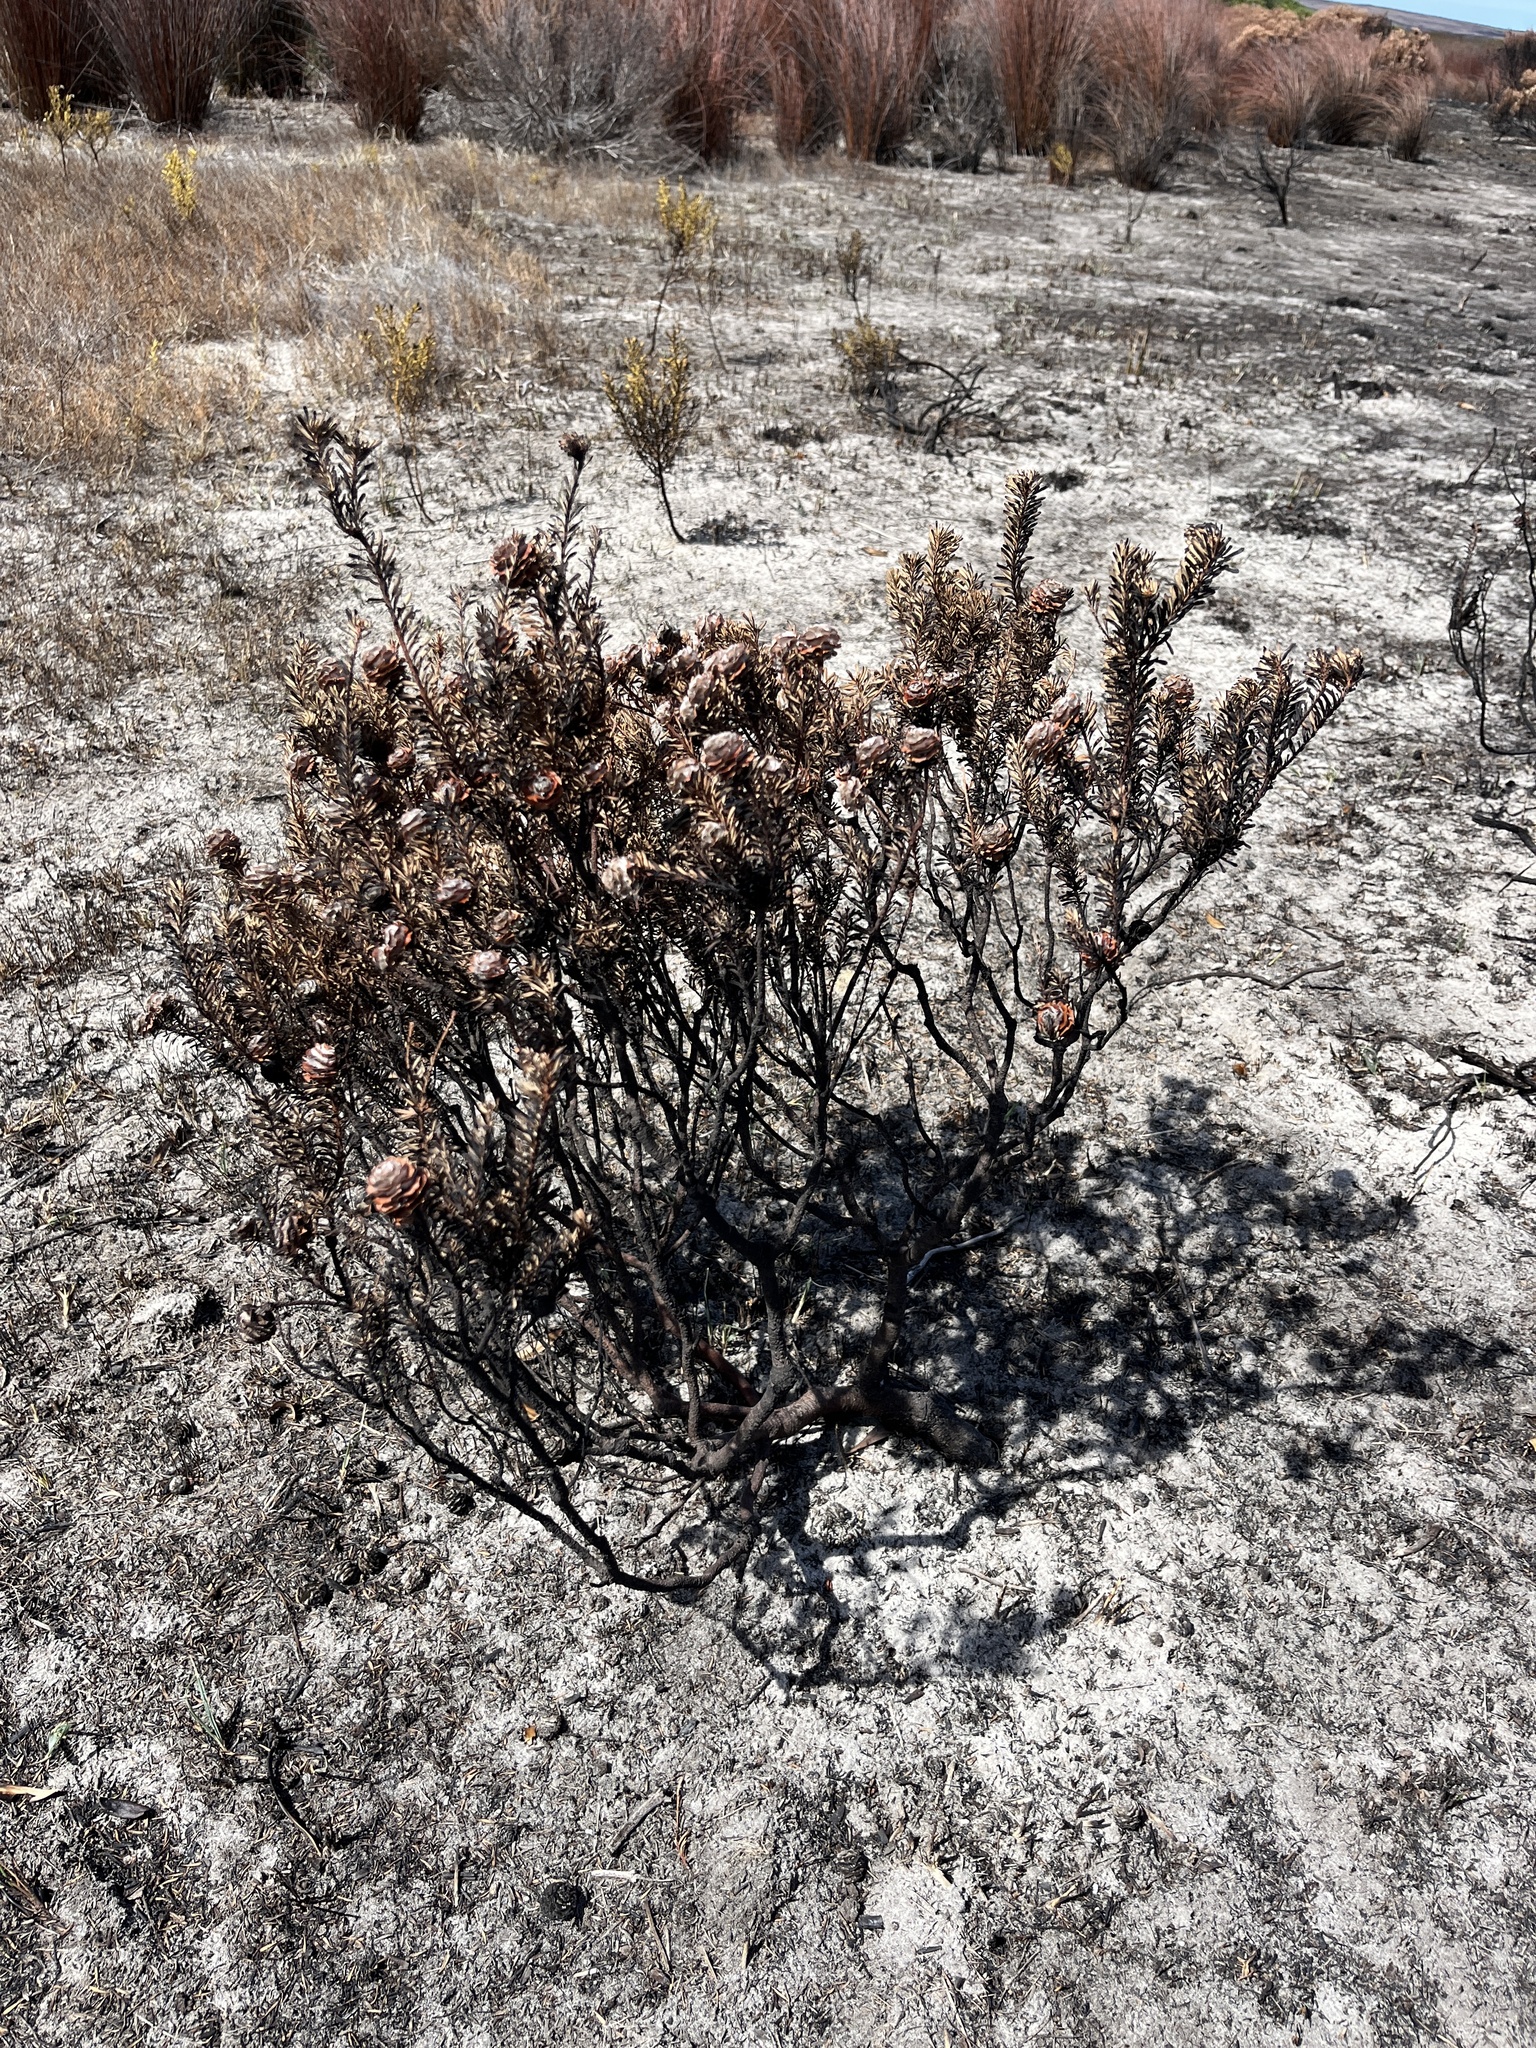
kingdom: Plantae
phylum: Tracheophyta
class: Magnoliopsida
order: Proteales
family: Proteaceae
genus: Leucadendron
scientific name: Leucadendron linifolium
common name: Line-leaf conebush
